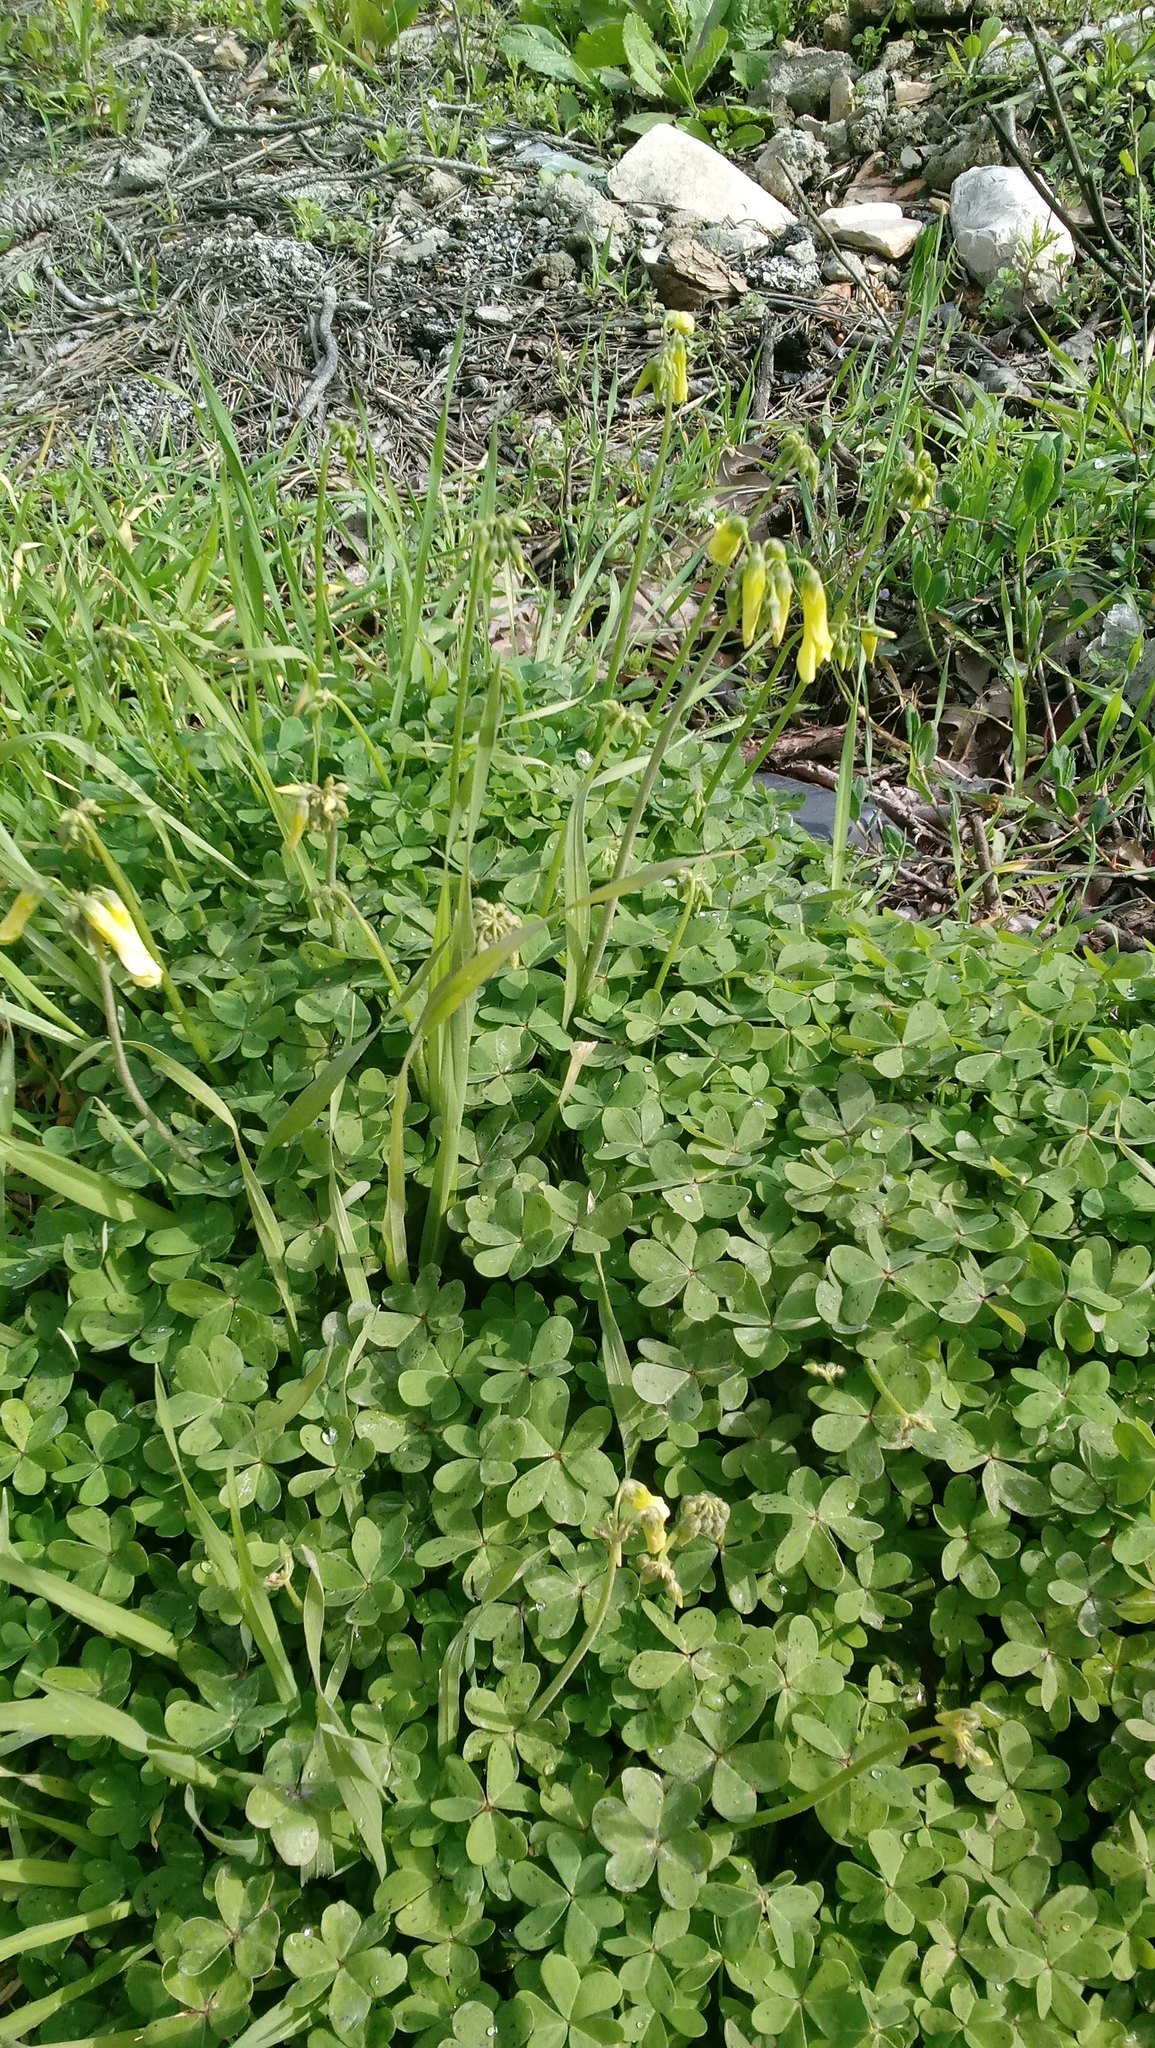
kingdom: Plantae
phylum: Tracheophyta
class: Magnoliopsida
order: Oxalidales
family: Oxalidaceae
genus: Oxalis
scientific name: Oxalis pes-caprae
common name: Bermuda-buttercup
